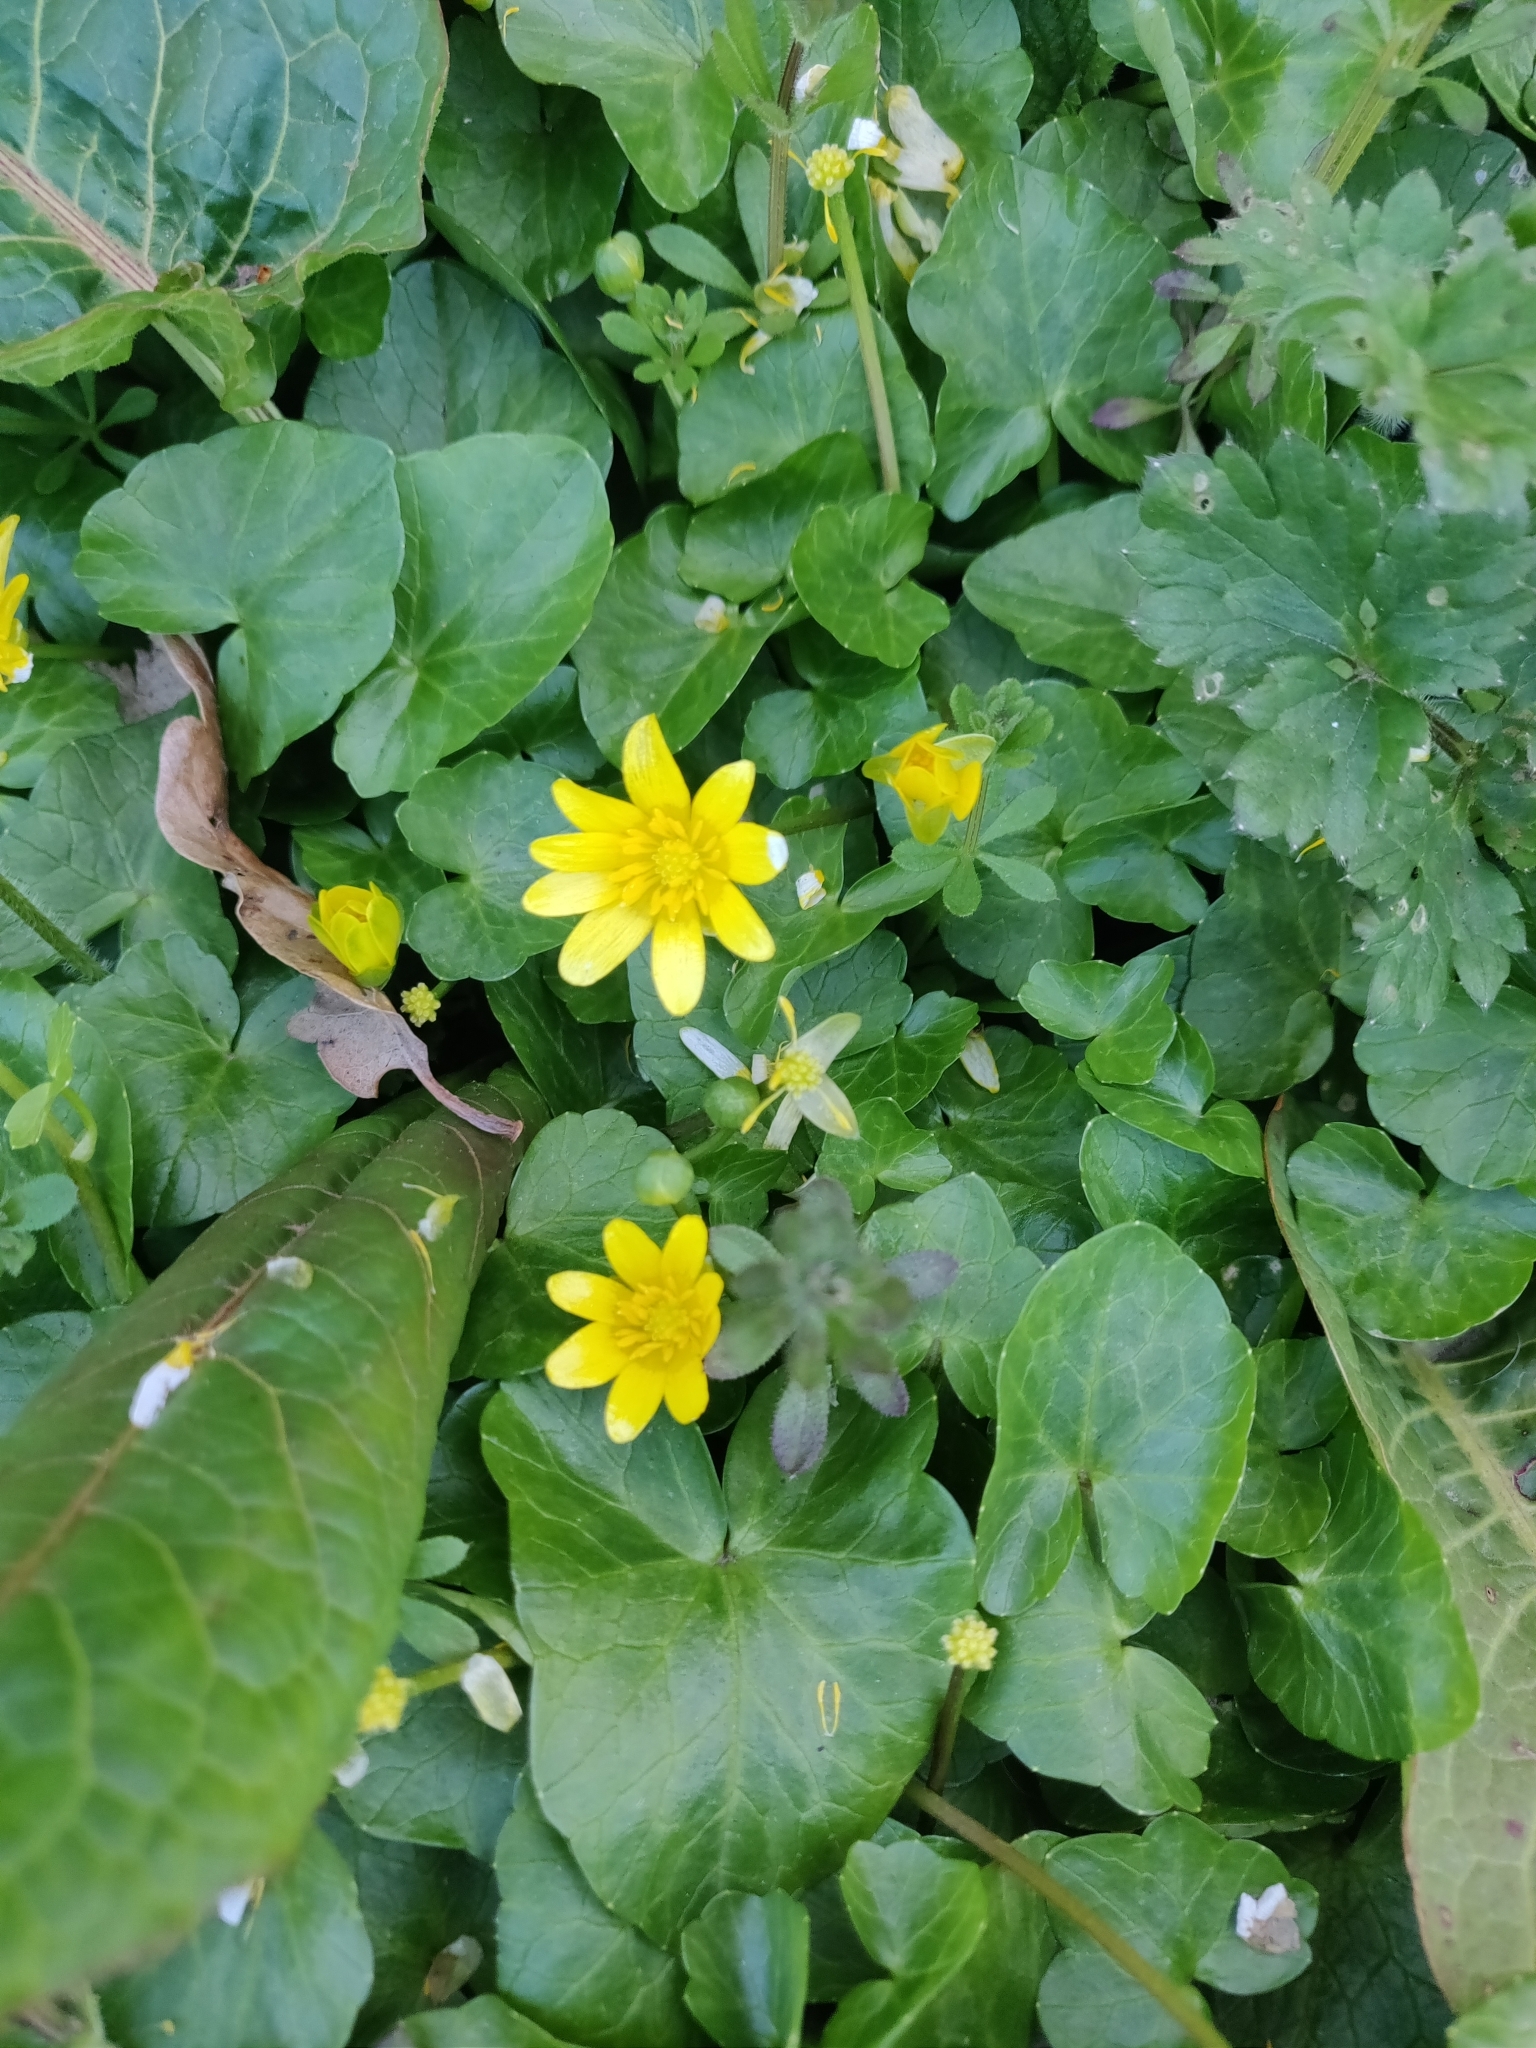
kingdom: Plantae
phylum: Tracheophyta
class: Magnoliopsida
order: Ranunculales
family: Ranunculaceae
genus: Ficaria
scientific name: Ficaria verna
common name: Lesser celandine
